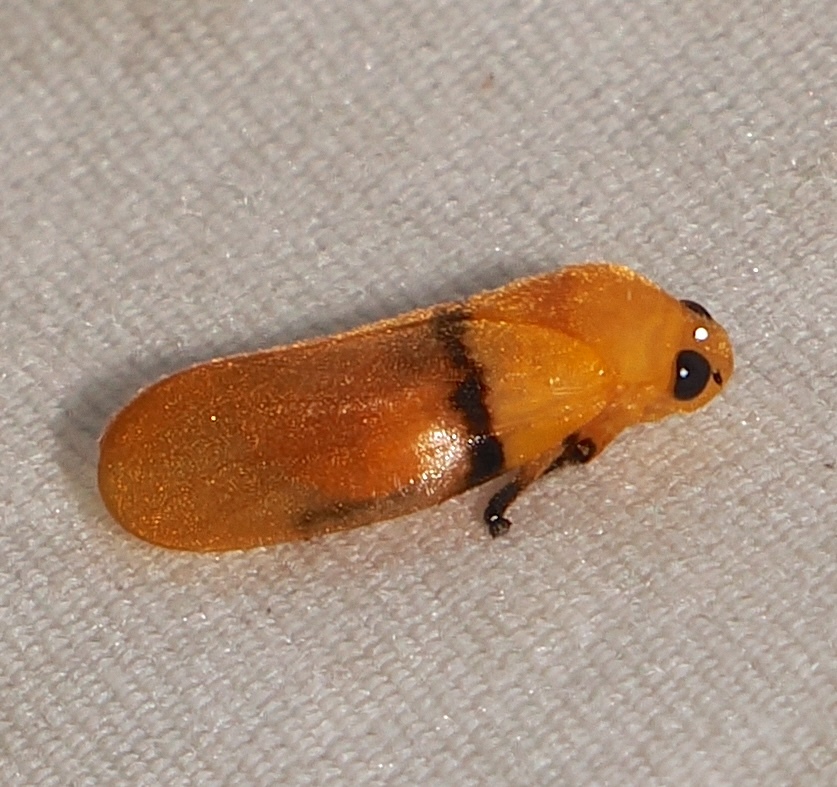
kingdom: Animalia
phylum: Arthropoda
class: Insecta
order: Hemiptera
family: Cercopidae
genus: Monecphora
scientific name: Monecphora cingulata
